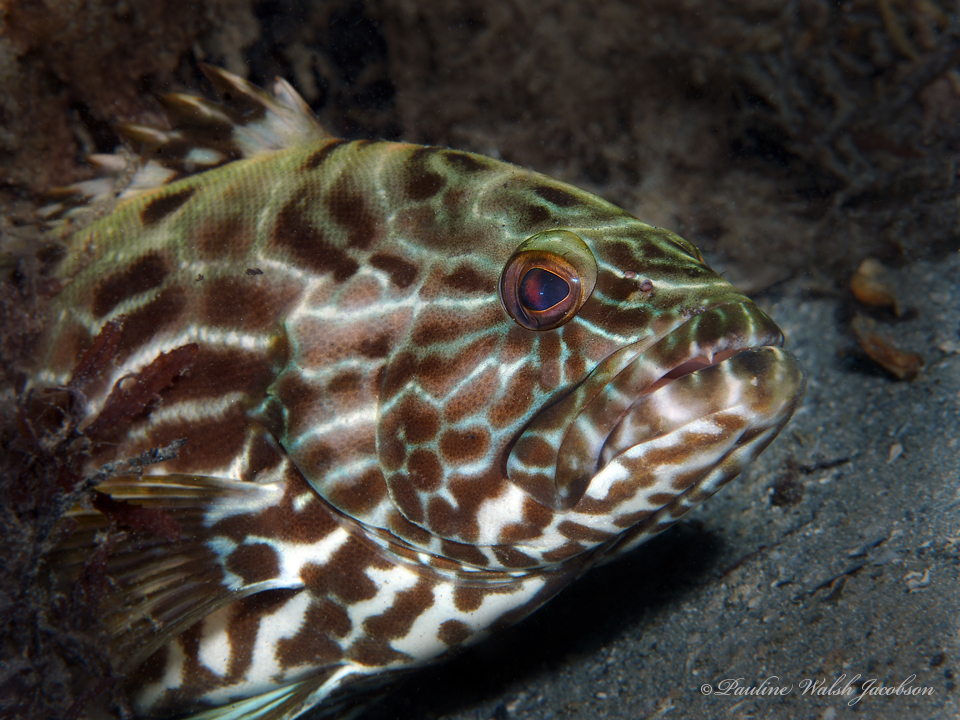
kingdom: Animalia
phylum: Chordata
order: Perciformes
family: Serranidae
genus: Mycteroperca
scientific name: Mycteroperca bonaci
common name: Black grouper
